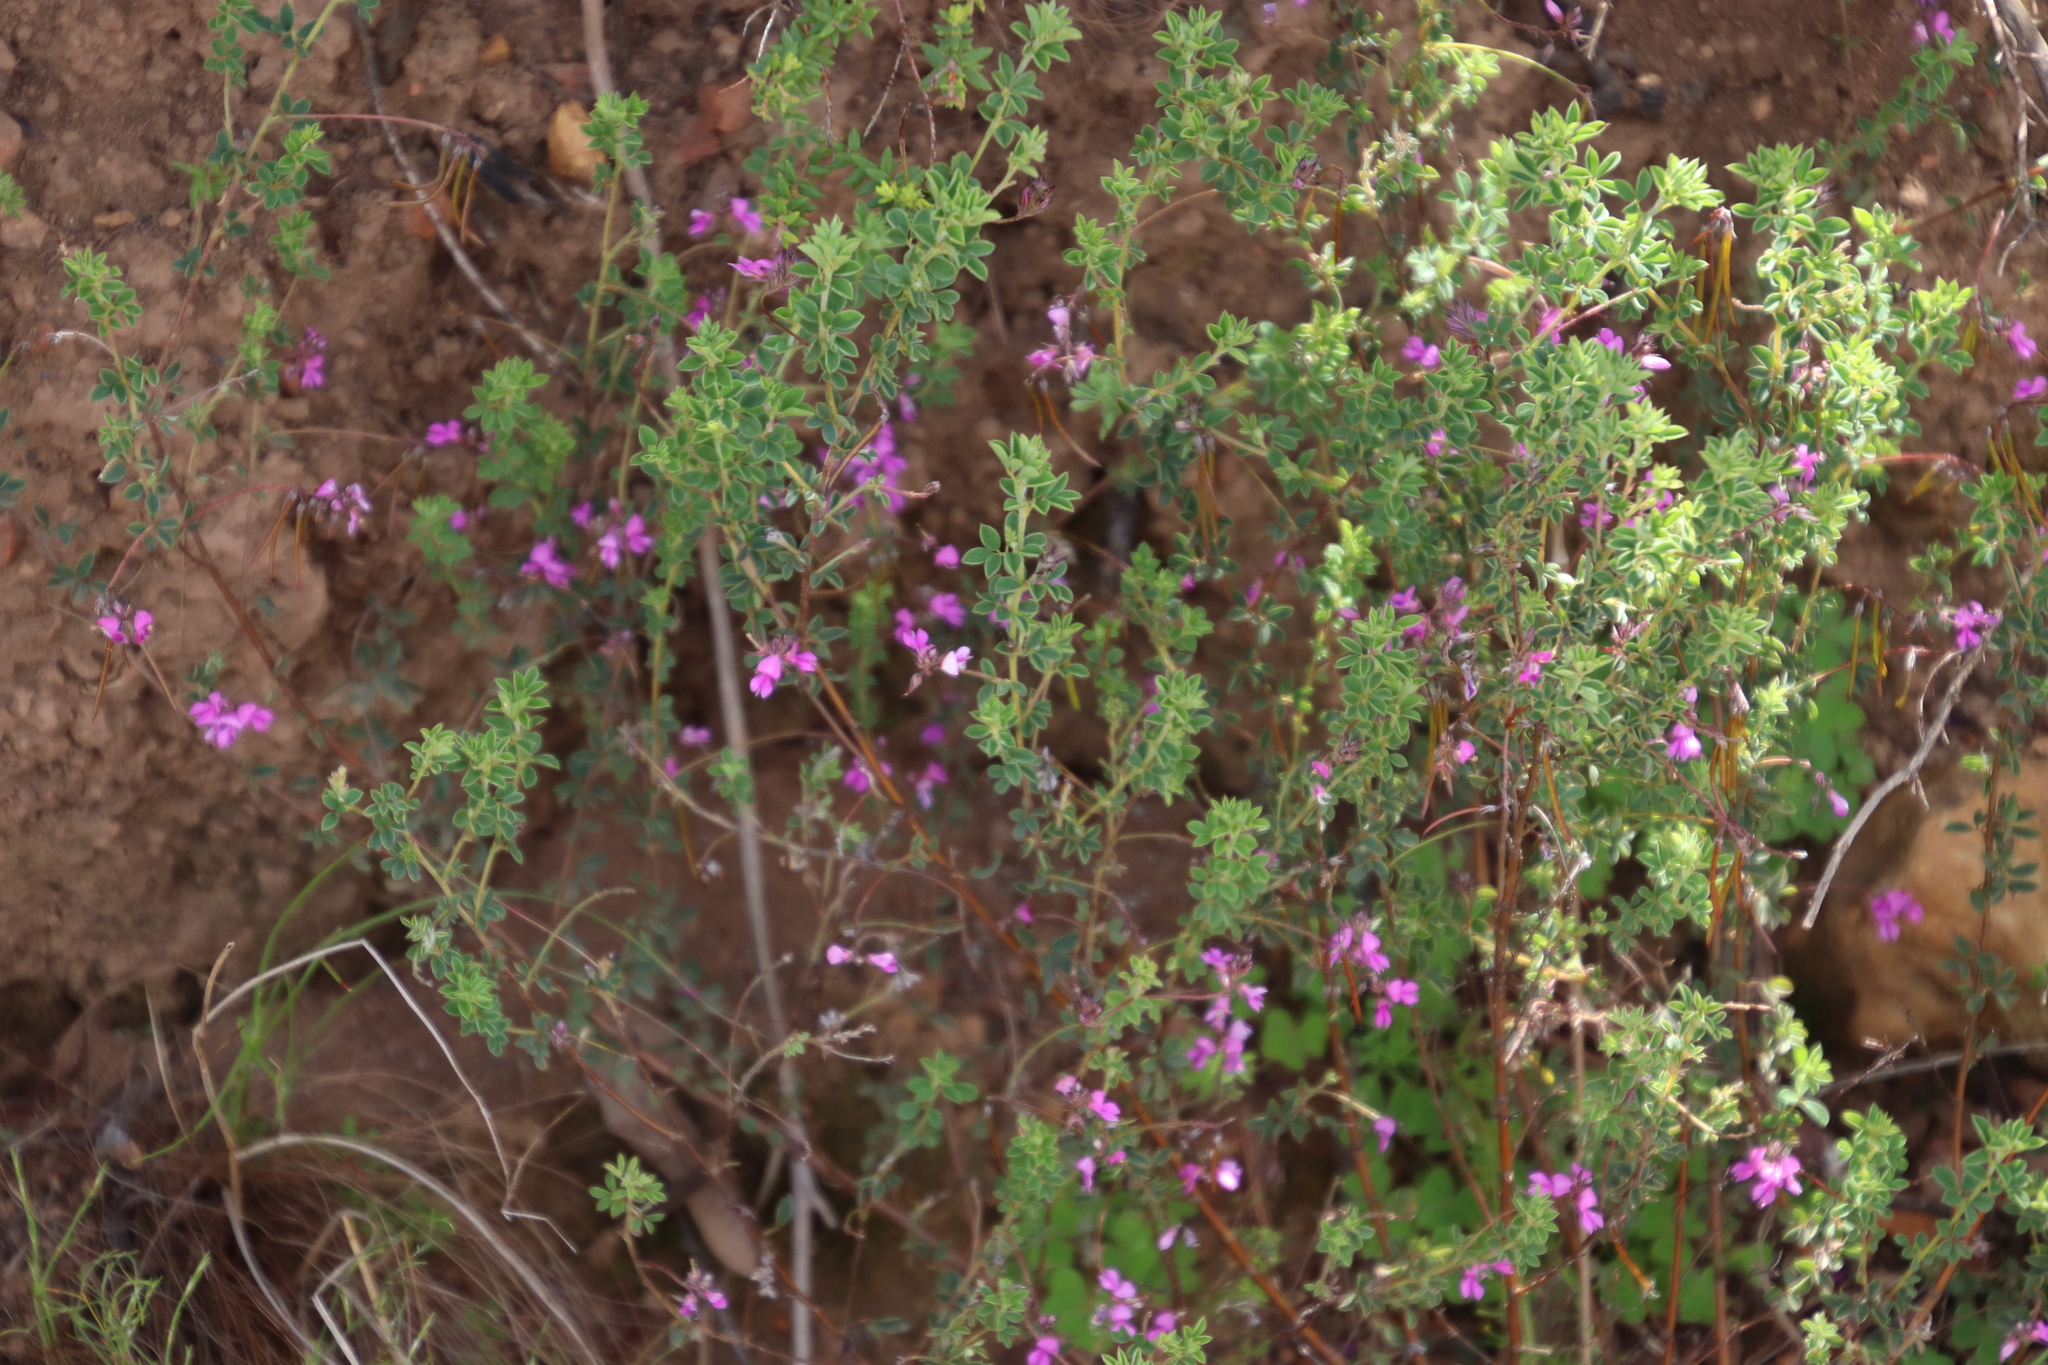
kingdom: Plantae
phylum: Tracheophyta
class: Magnoliopsida
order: Fabales
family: Fabaceae
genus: Indigofera
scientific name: Indigofera alopecuroides
